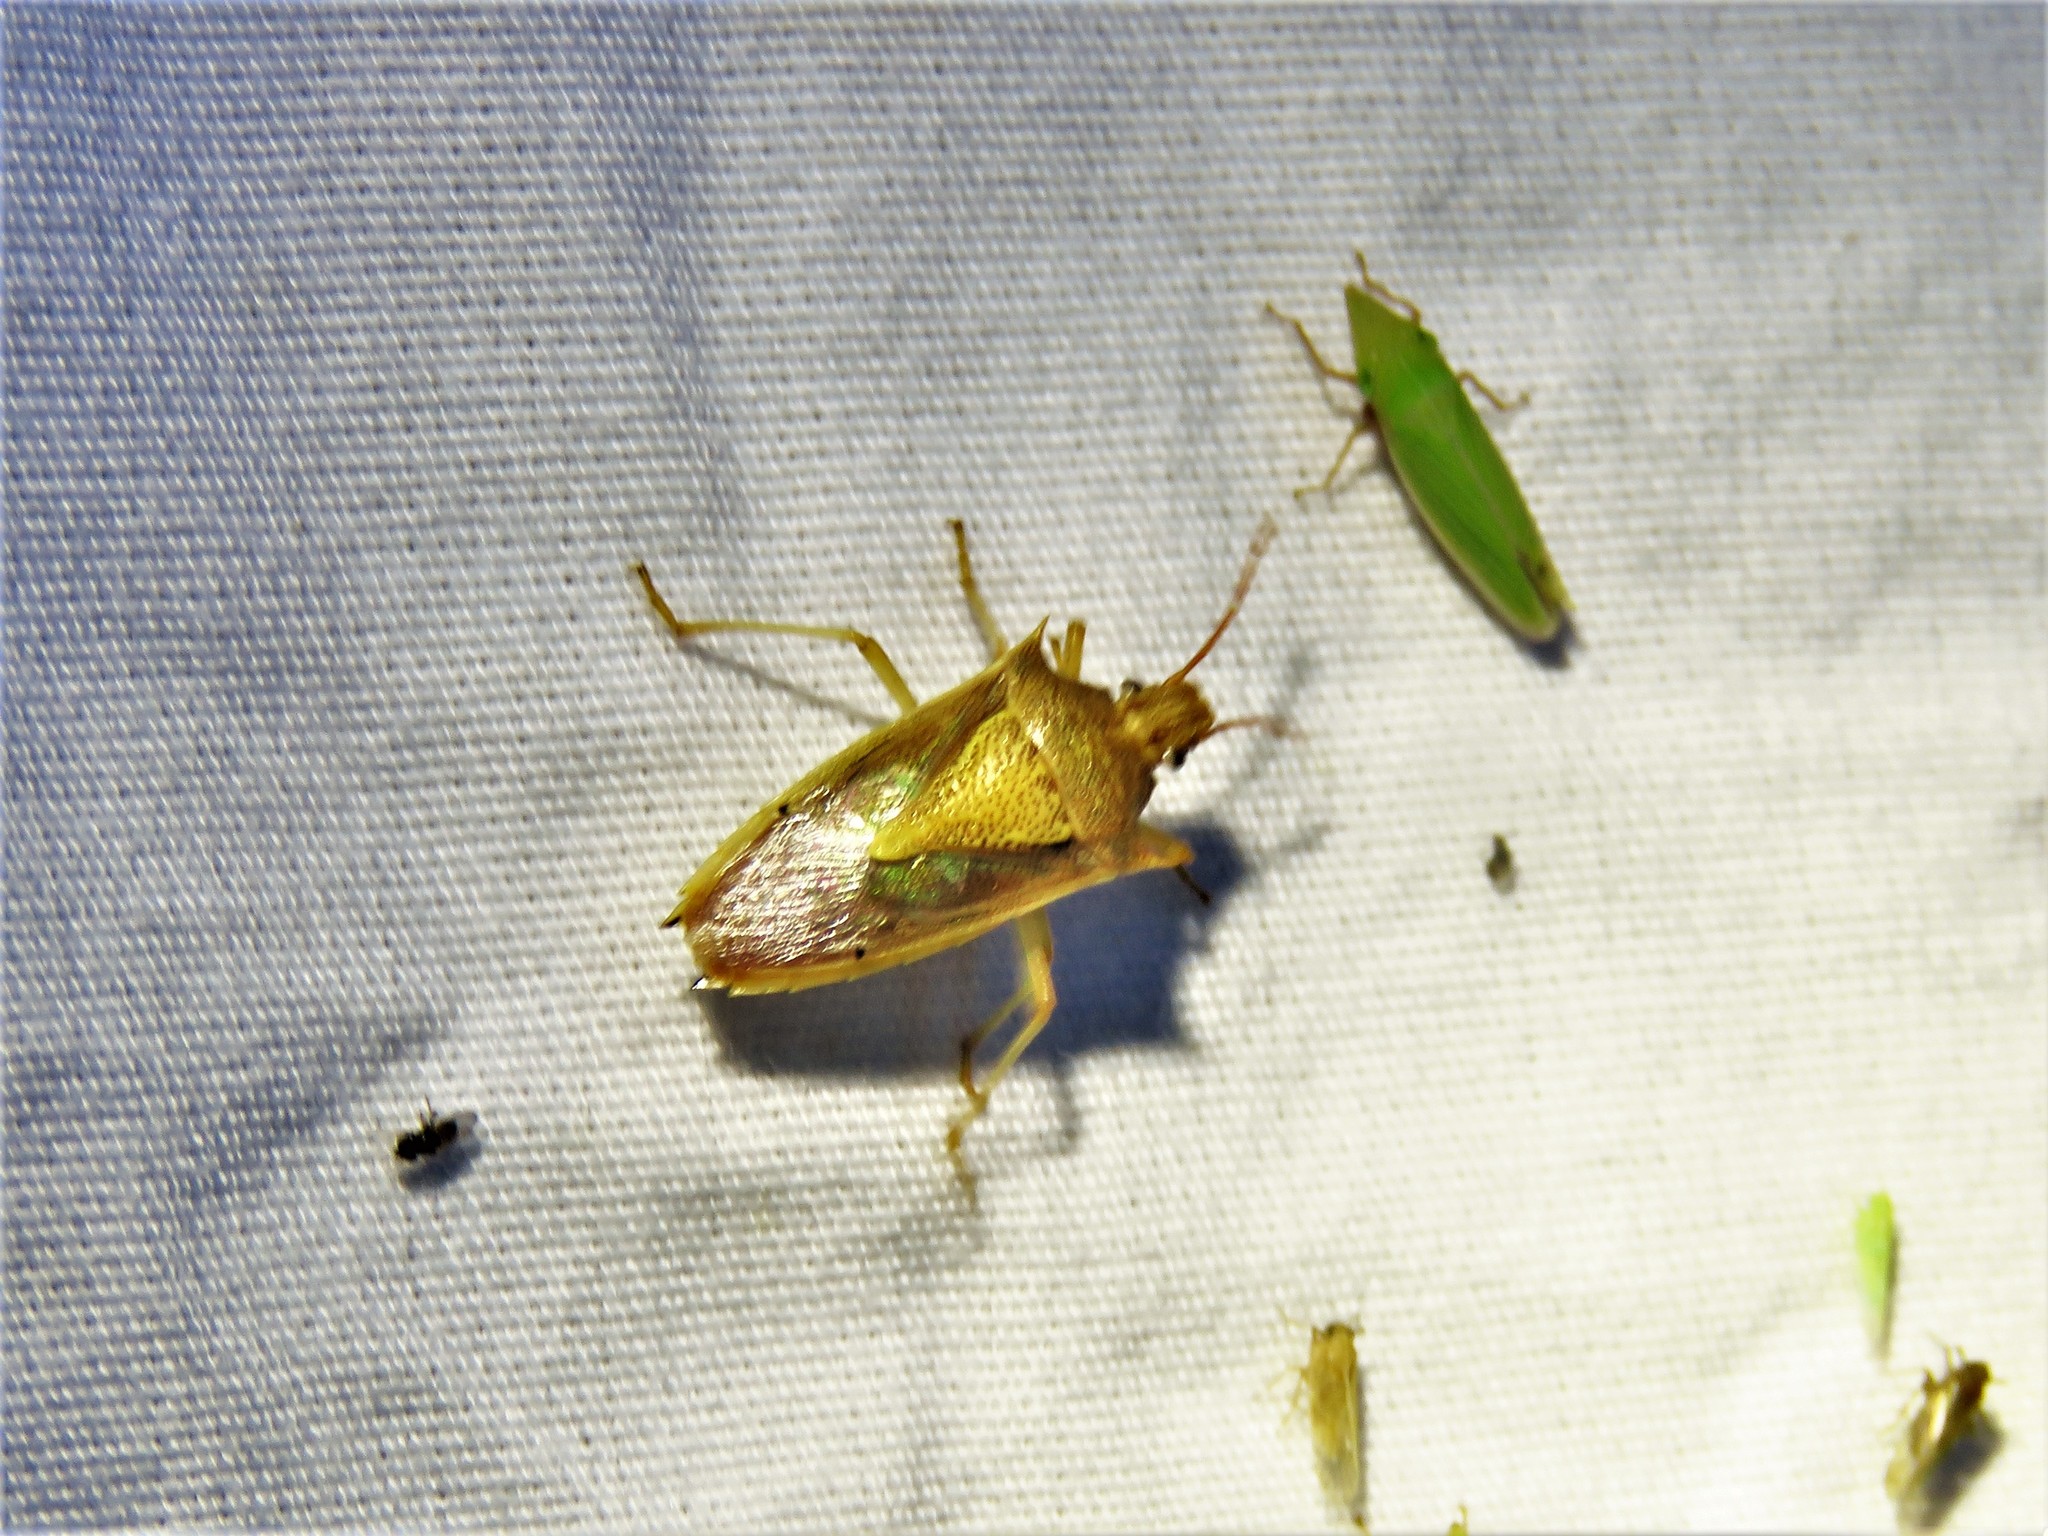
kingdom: Animalia
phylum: Arthropoda
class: Insecta
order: Hemiptera
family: Pentatomidae
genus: Oebalus
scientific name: Oebalus pugnax
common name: Rice stink bug
